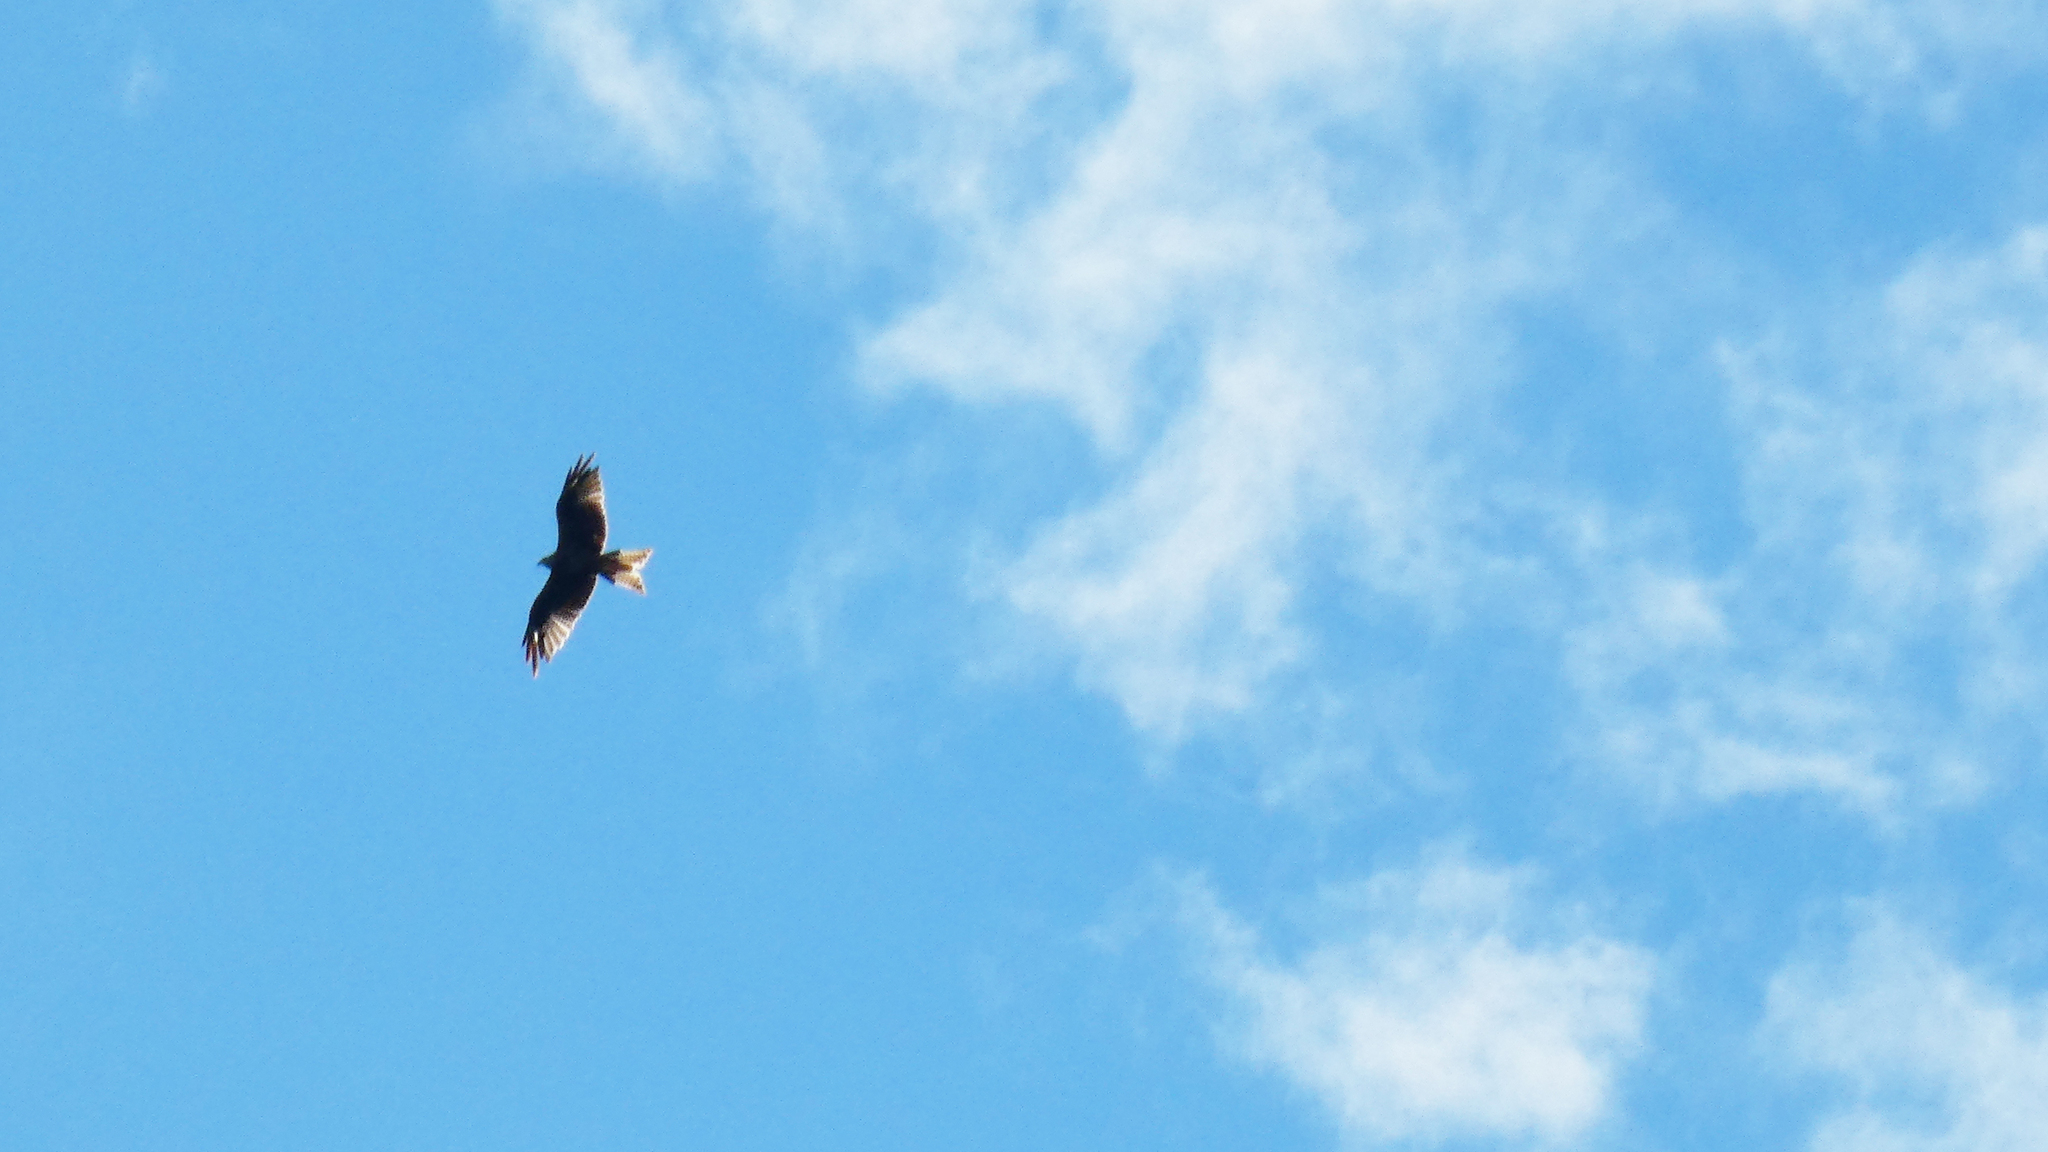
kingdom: Animalia
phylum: Chordata
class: Aves
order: Accipitriformes
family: Accipitridae
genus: Milvus
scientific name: Milvus milvus
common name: Red kite
